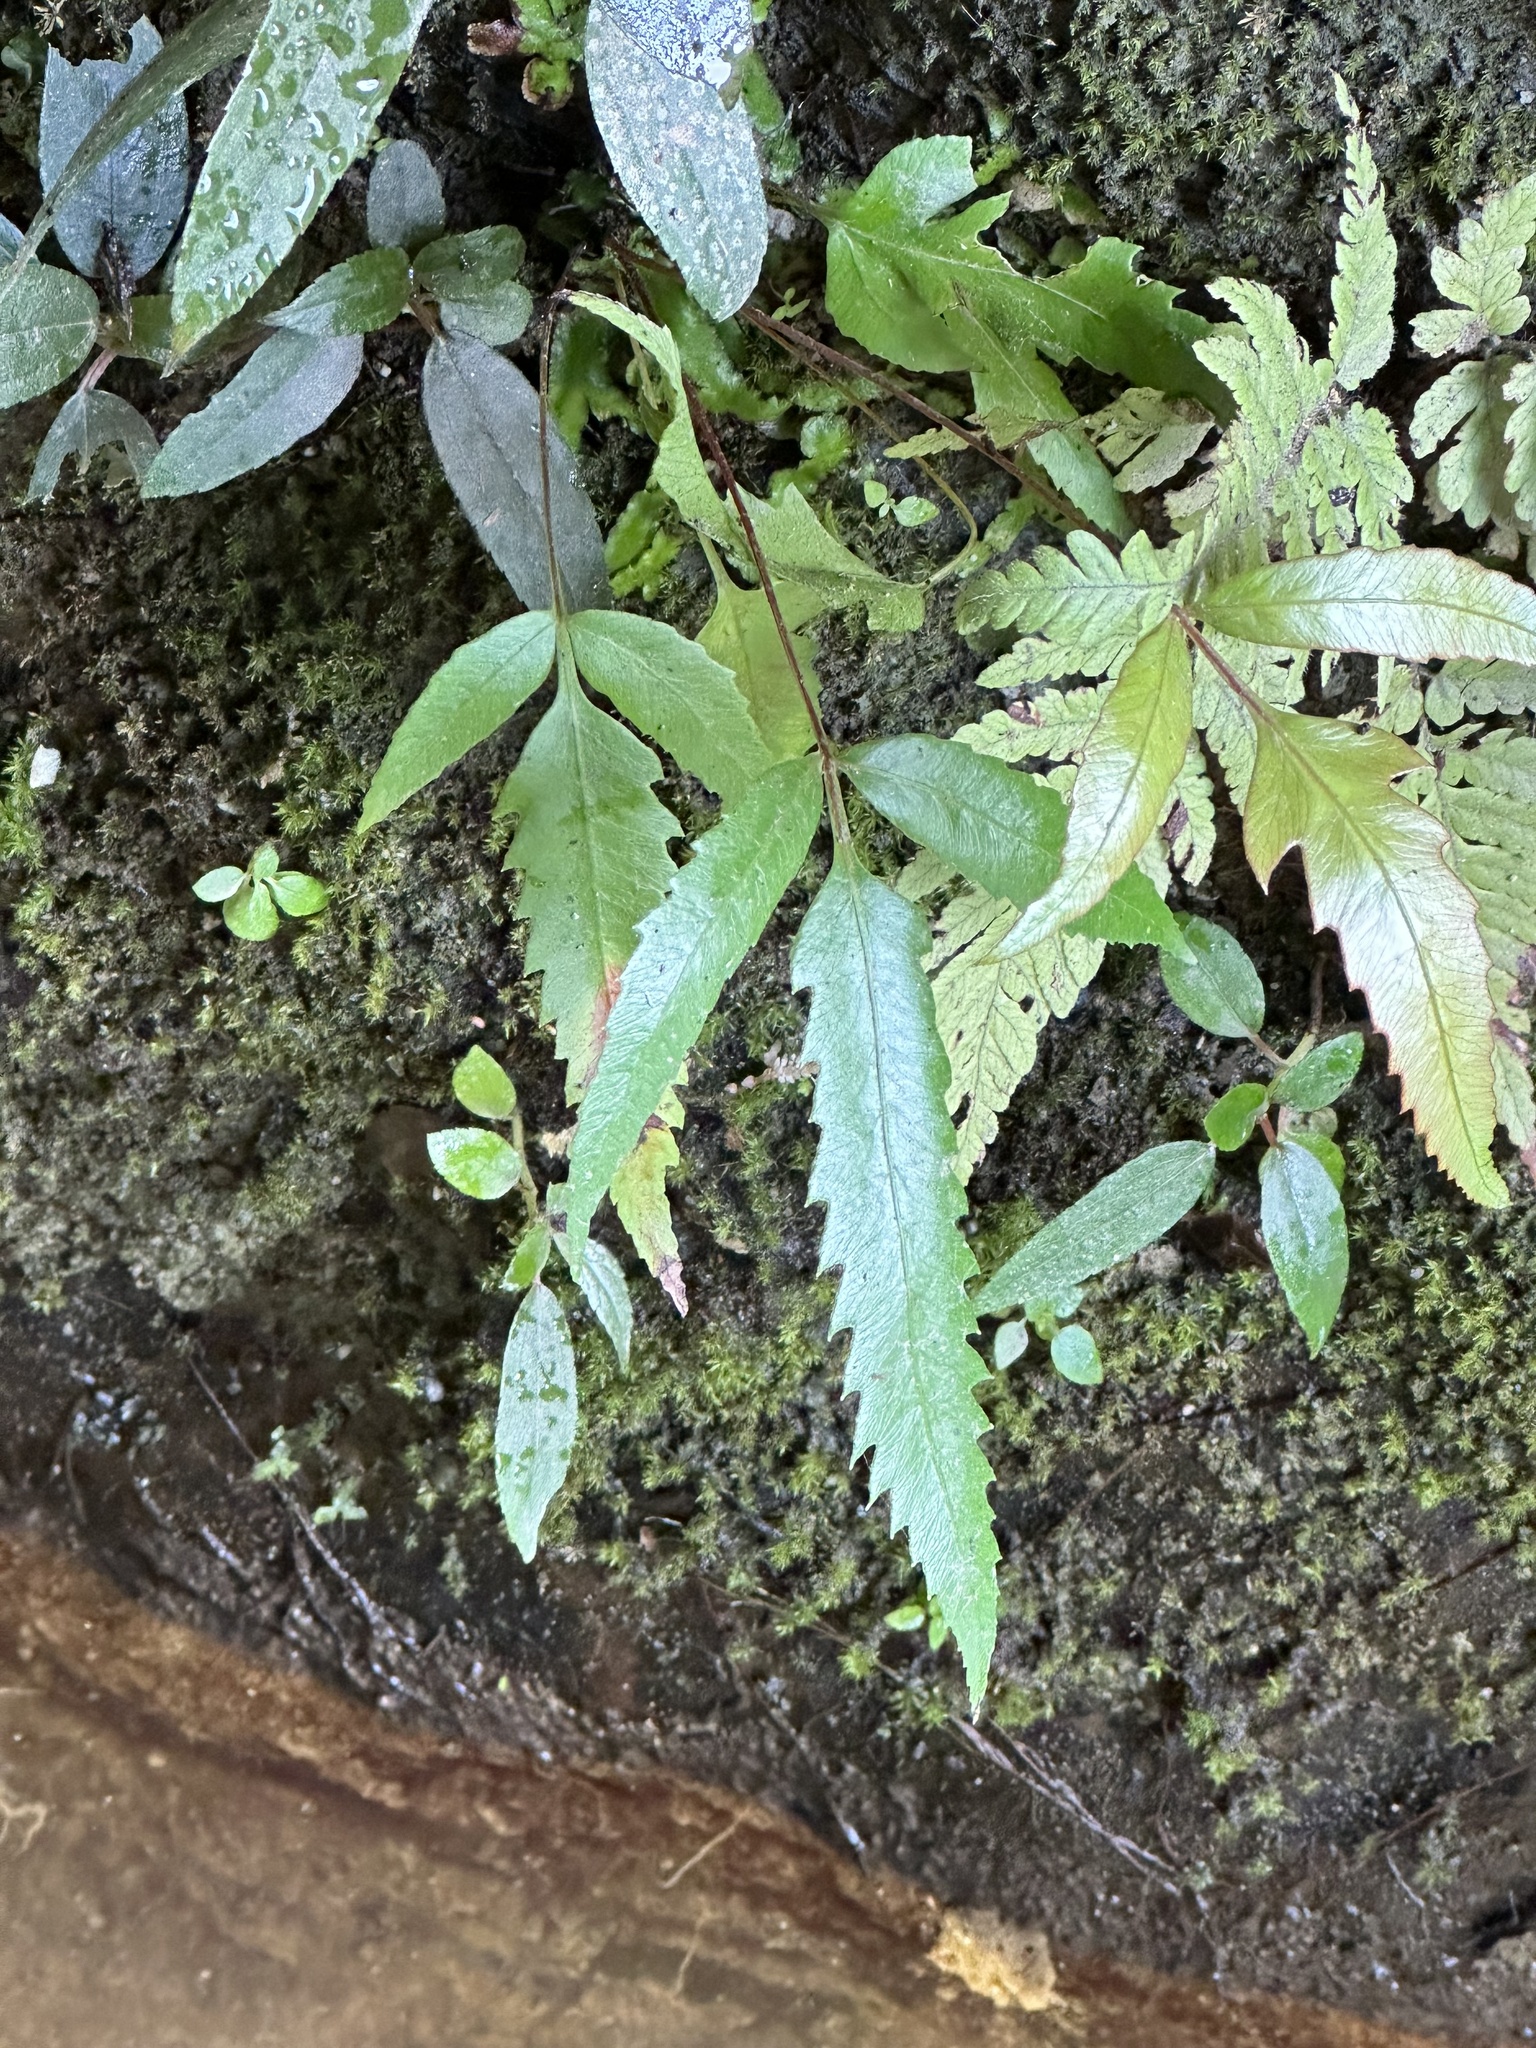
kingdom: Plantae
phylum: Tracheophyta
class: Polypodiopsida
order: Osmundales
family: Osmundaceae
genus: Plenasium
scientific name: Plenasium banksiifolium
